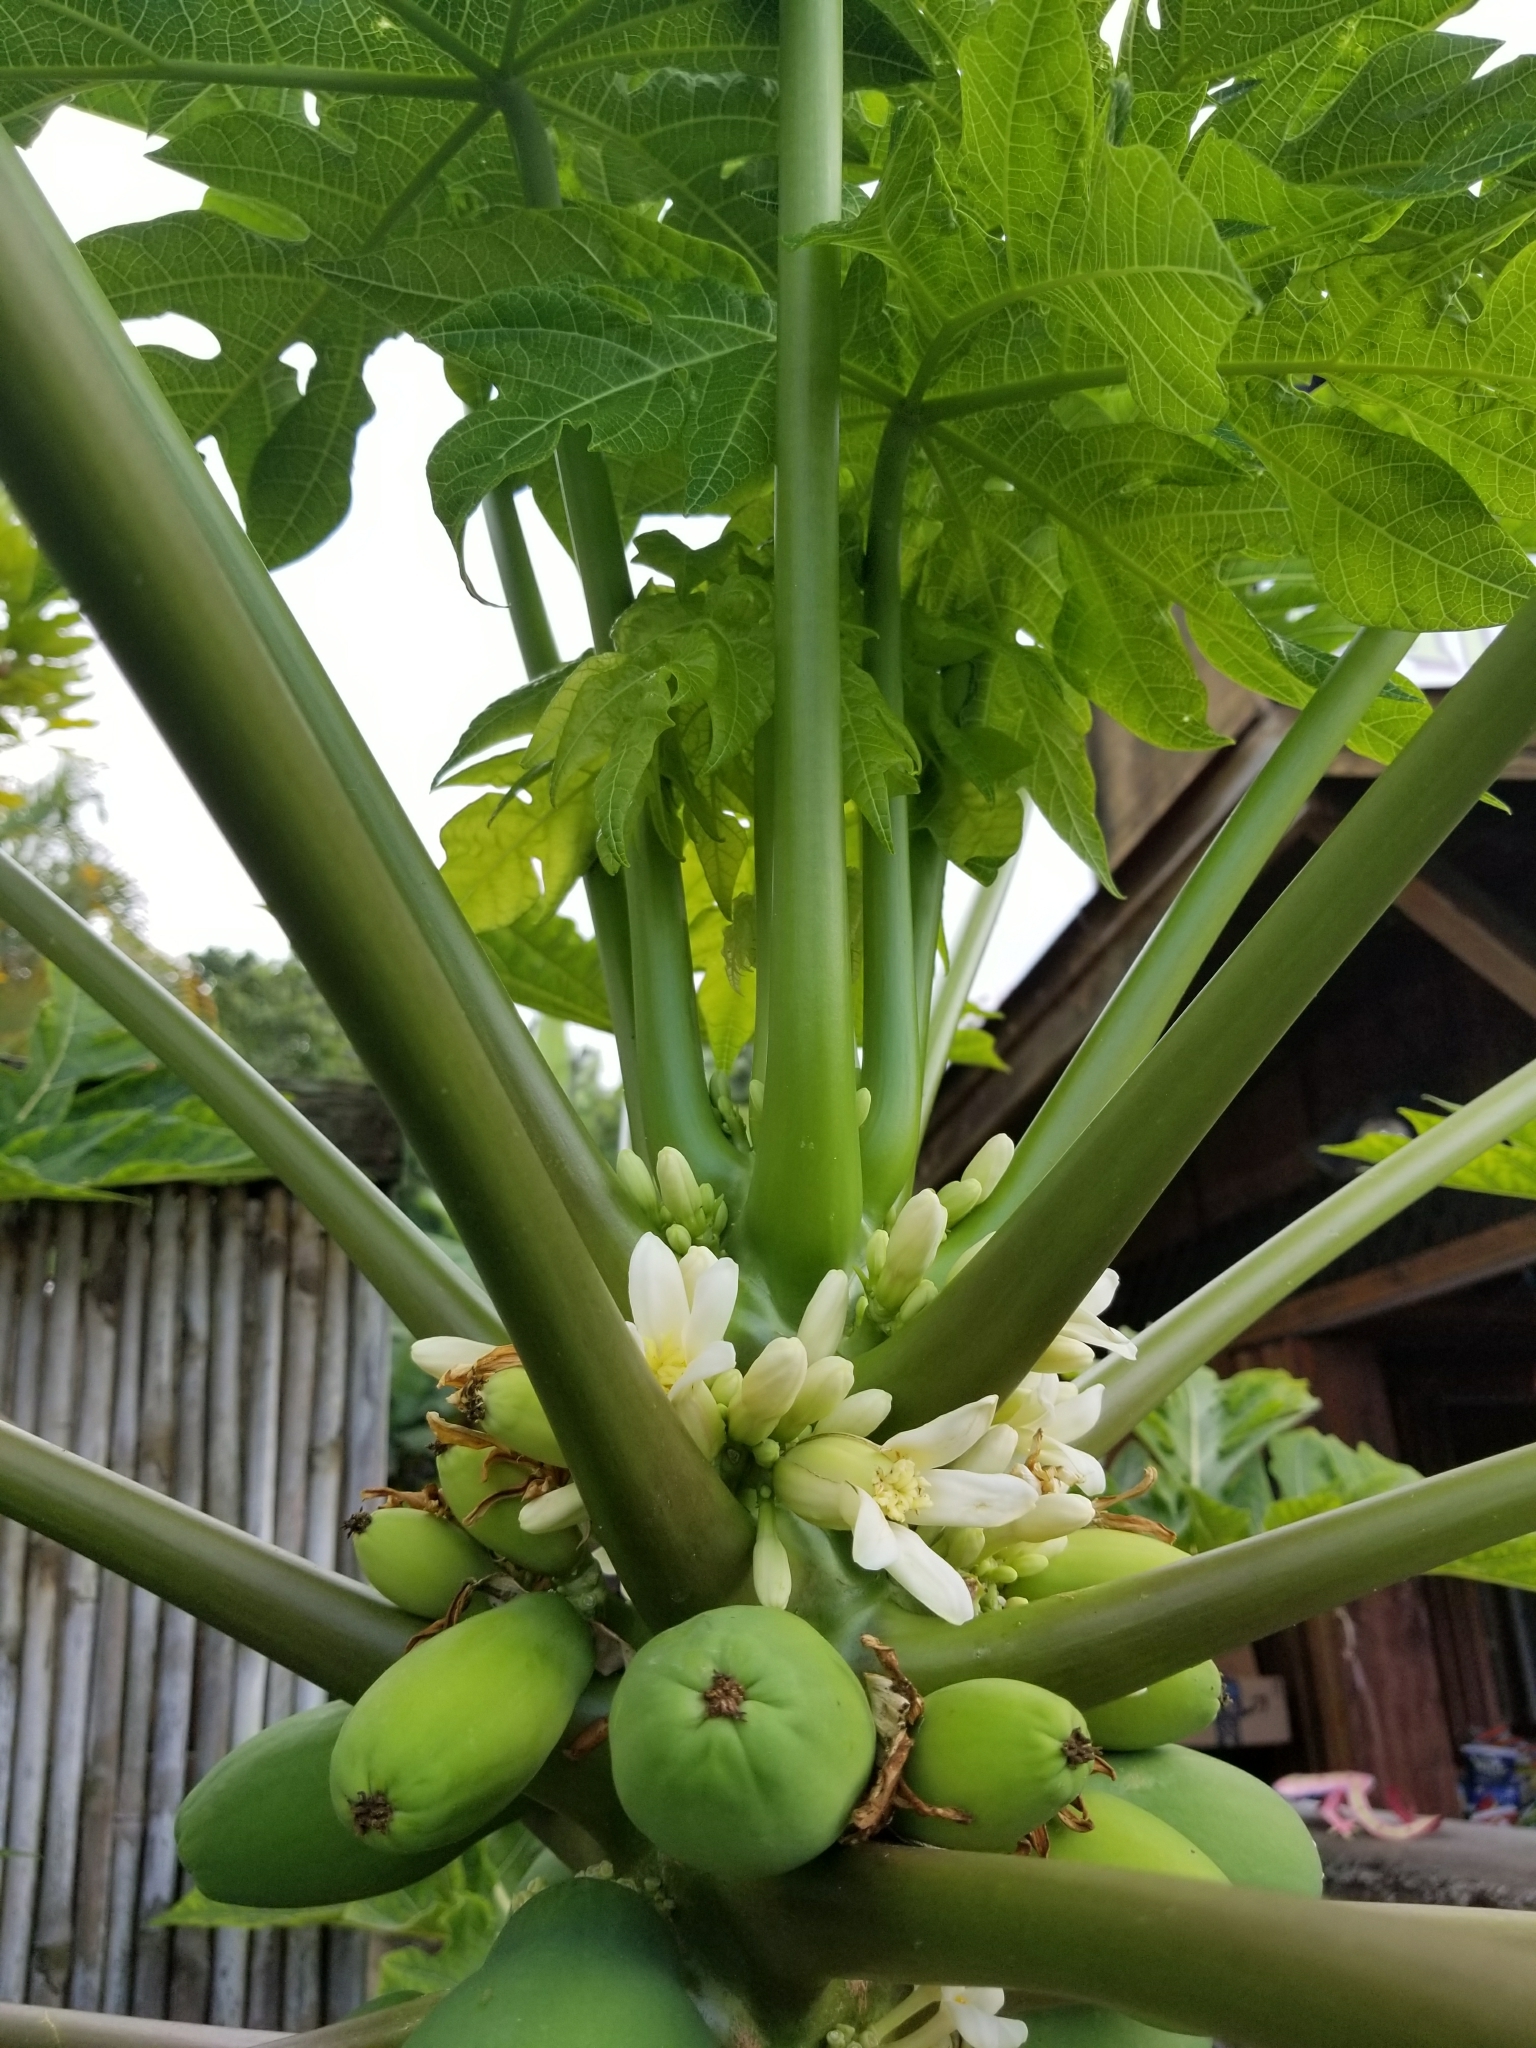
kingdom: Plantae
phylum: Tracheophyta
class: Magnoliopsida
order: Brassicales
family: Caricaceae
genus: Carica
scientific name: Carica papaya
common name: Papaya
